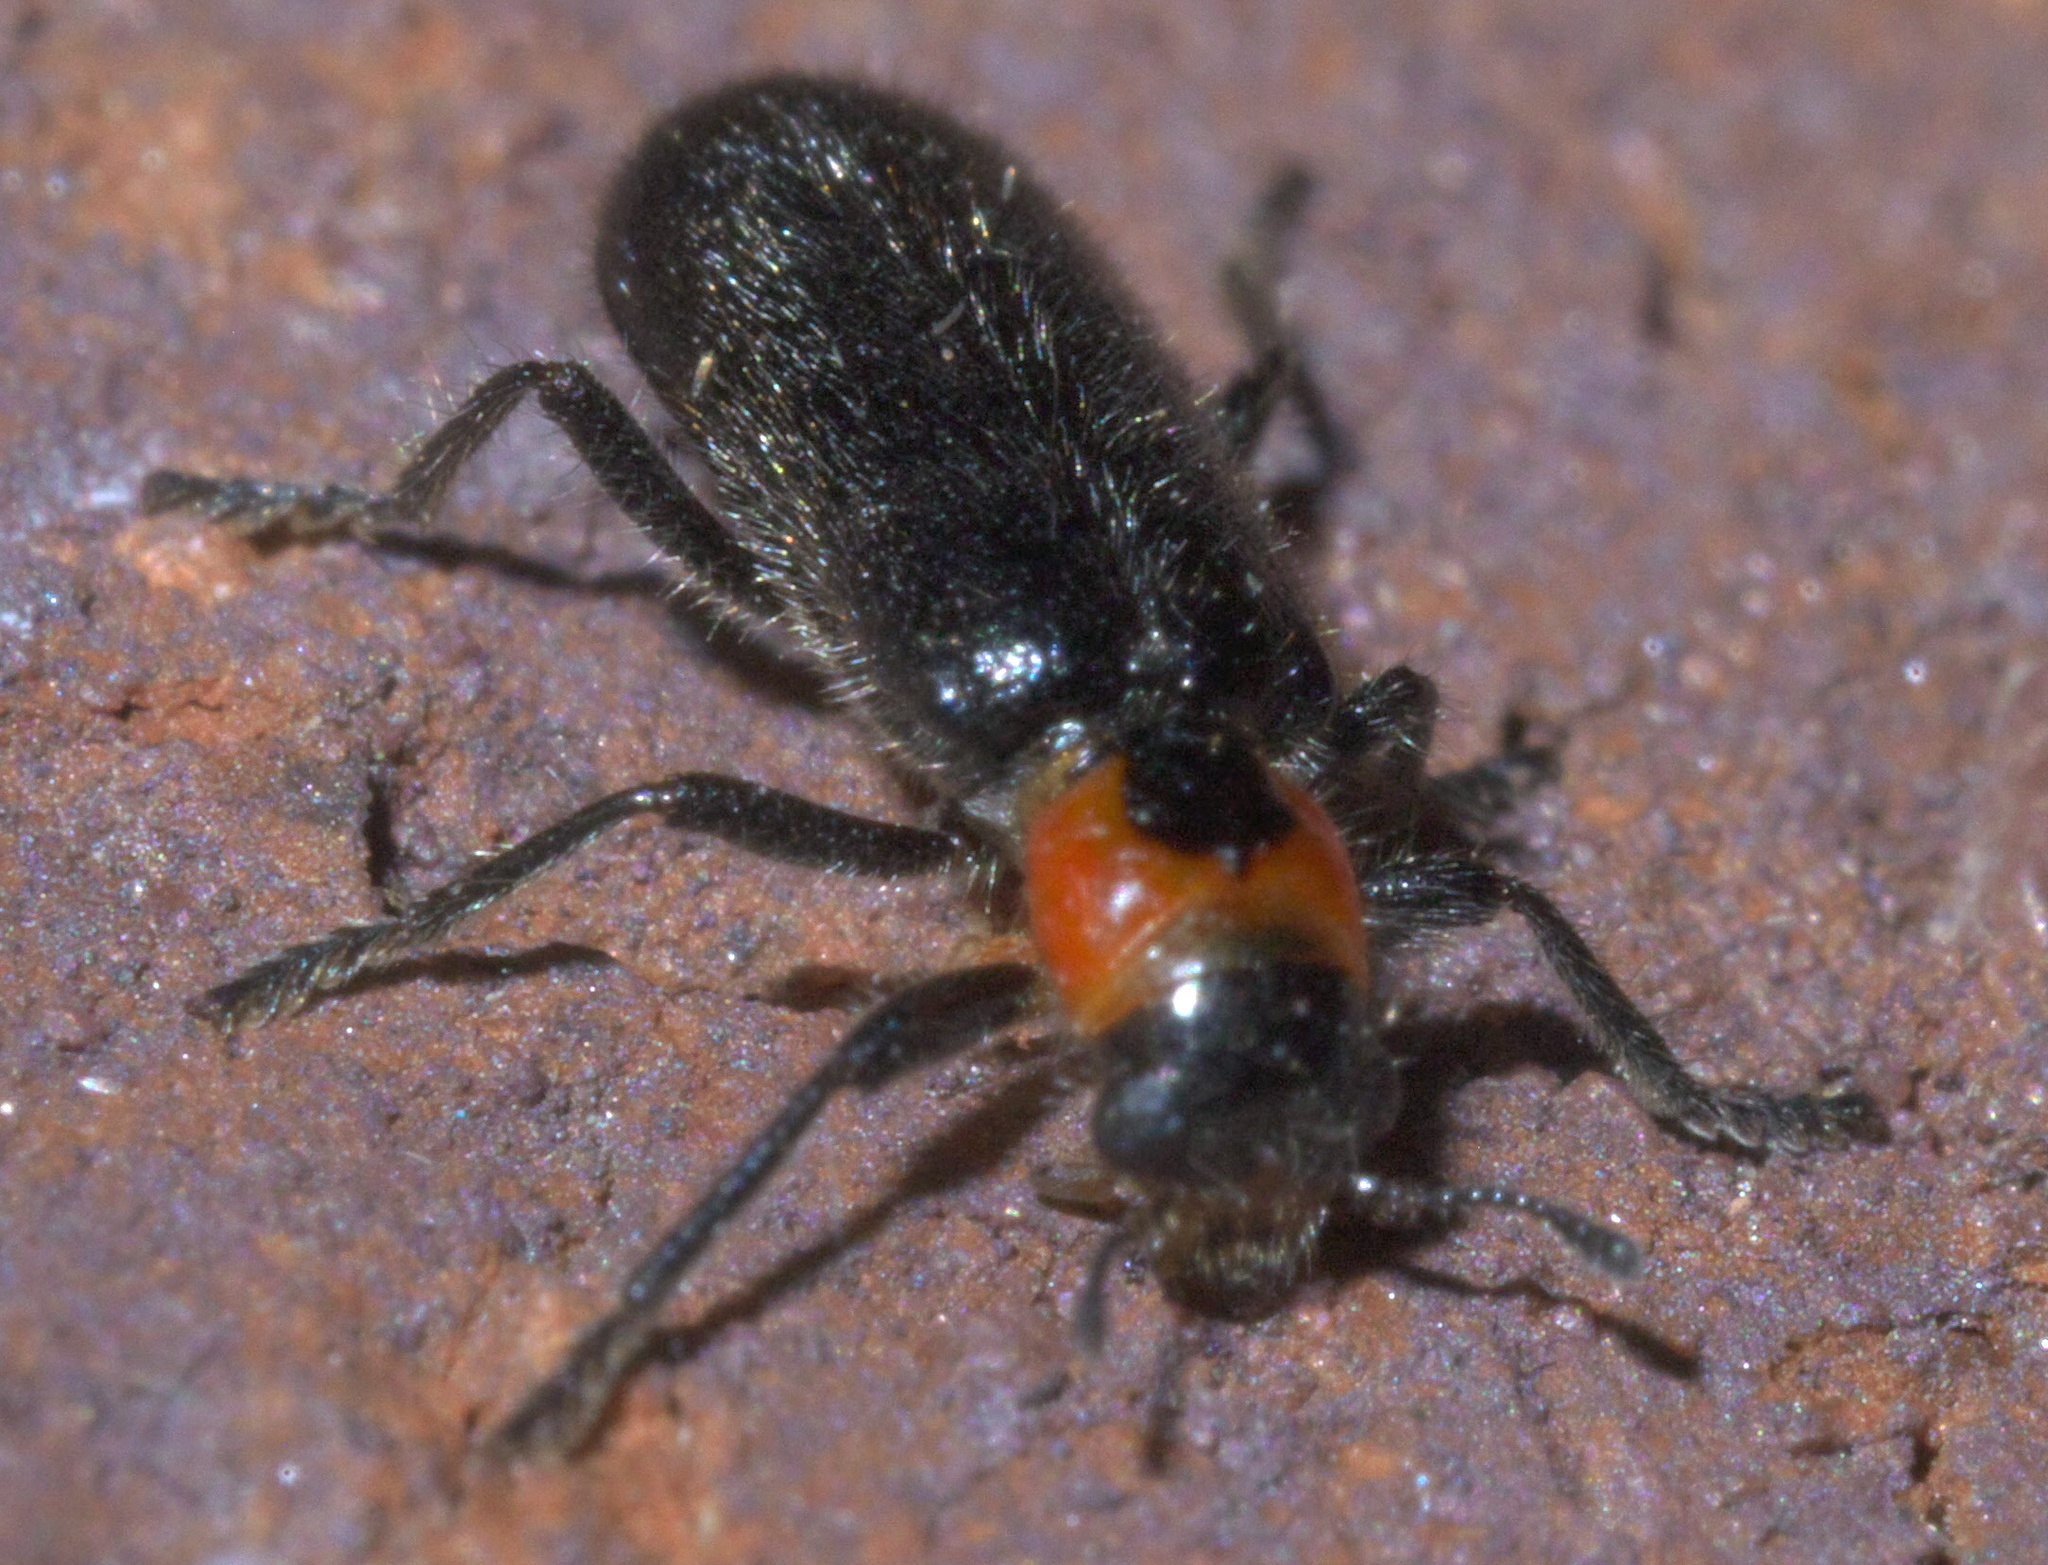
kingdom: Animalia
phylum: Arthropoda
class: Insecta
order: Coleoptera
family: Cleridae
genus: Placopterus
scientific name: Placopterus thoracicus
